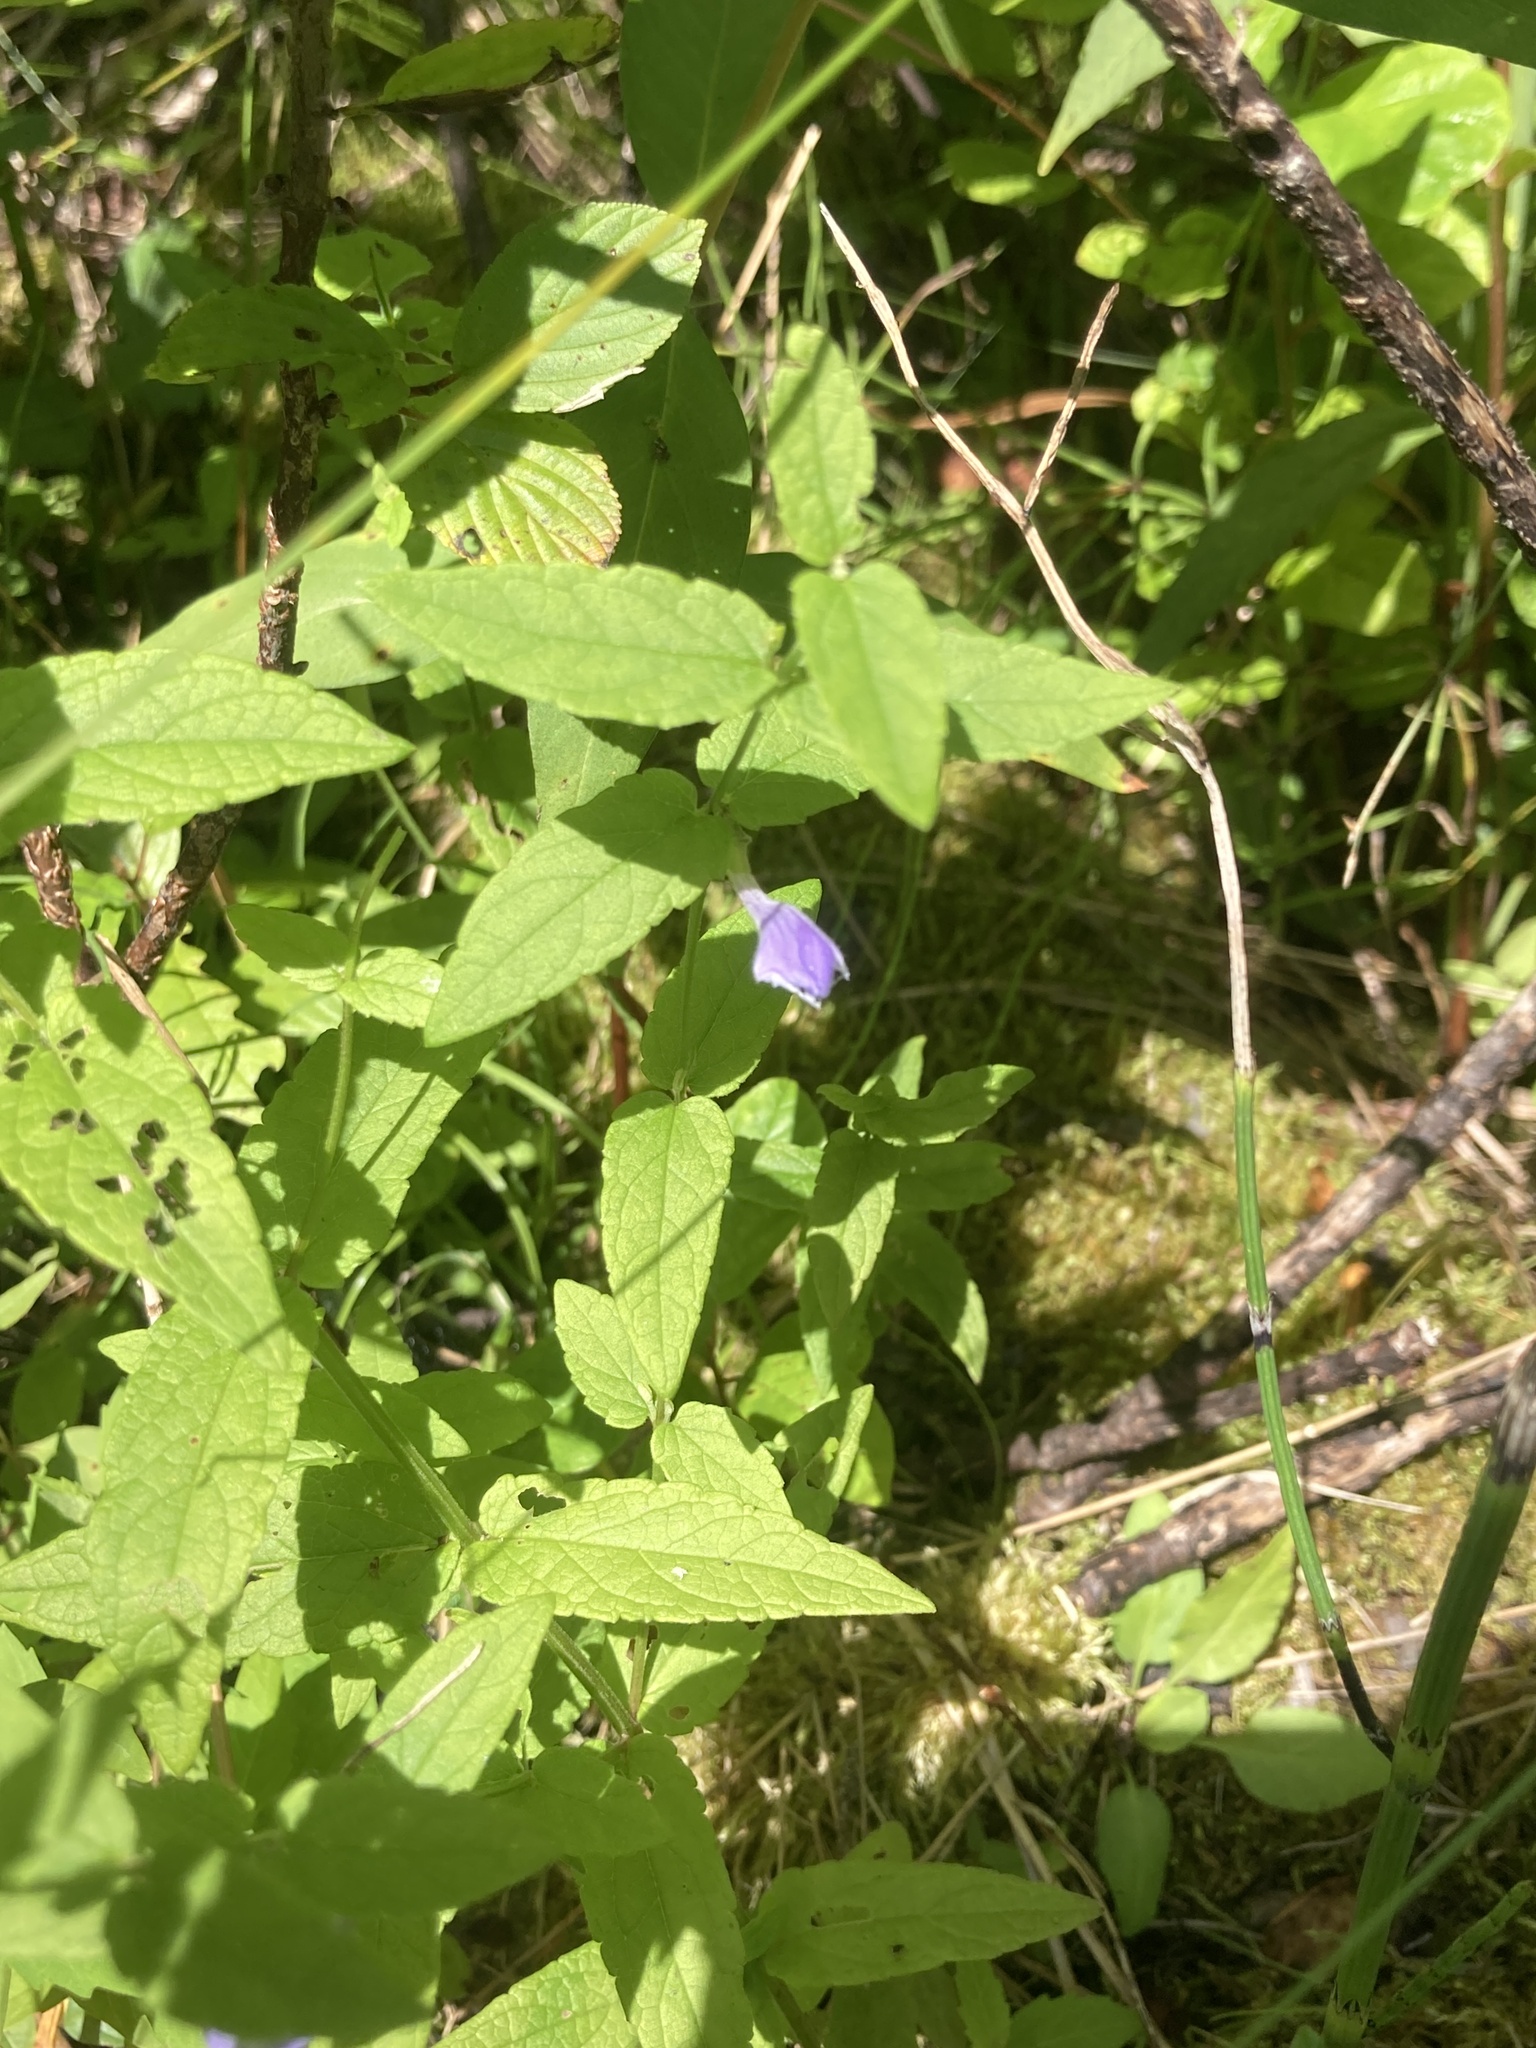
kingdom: Plantae
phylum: Tracheophyta
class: Magnoliopsida
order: Lamiales
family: Lamiaceae
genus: Scutellaria
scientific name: Scutellaria galericulata
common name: Skullcap
